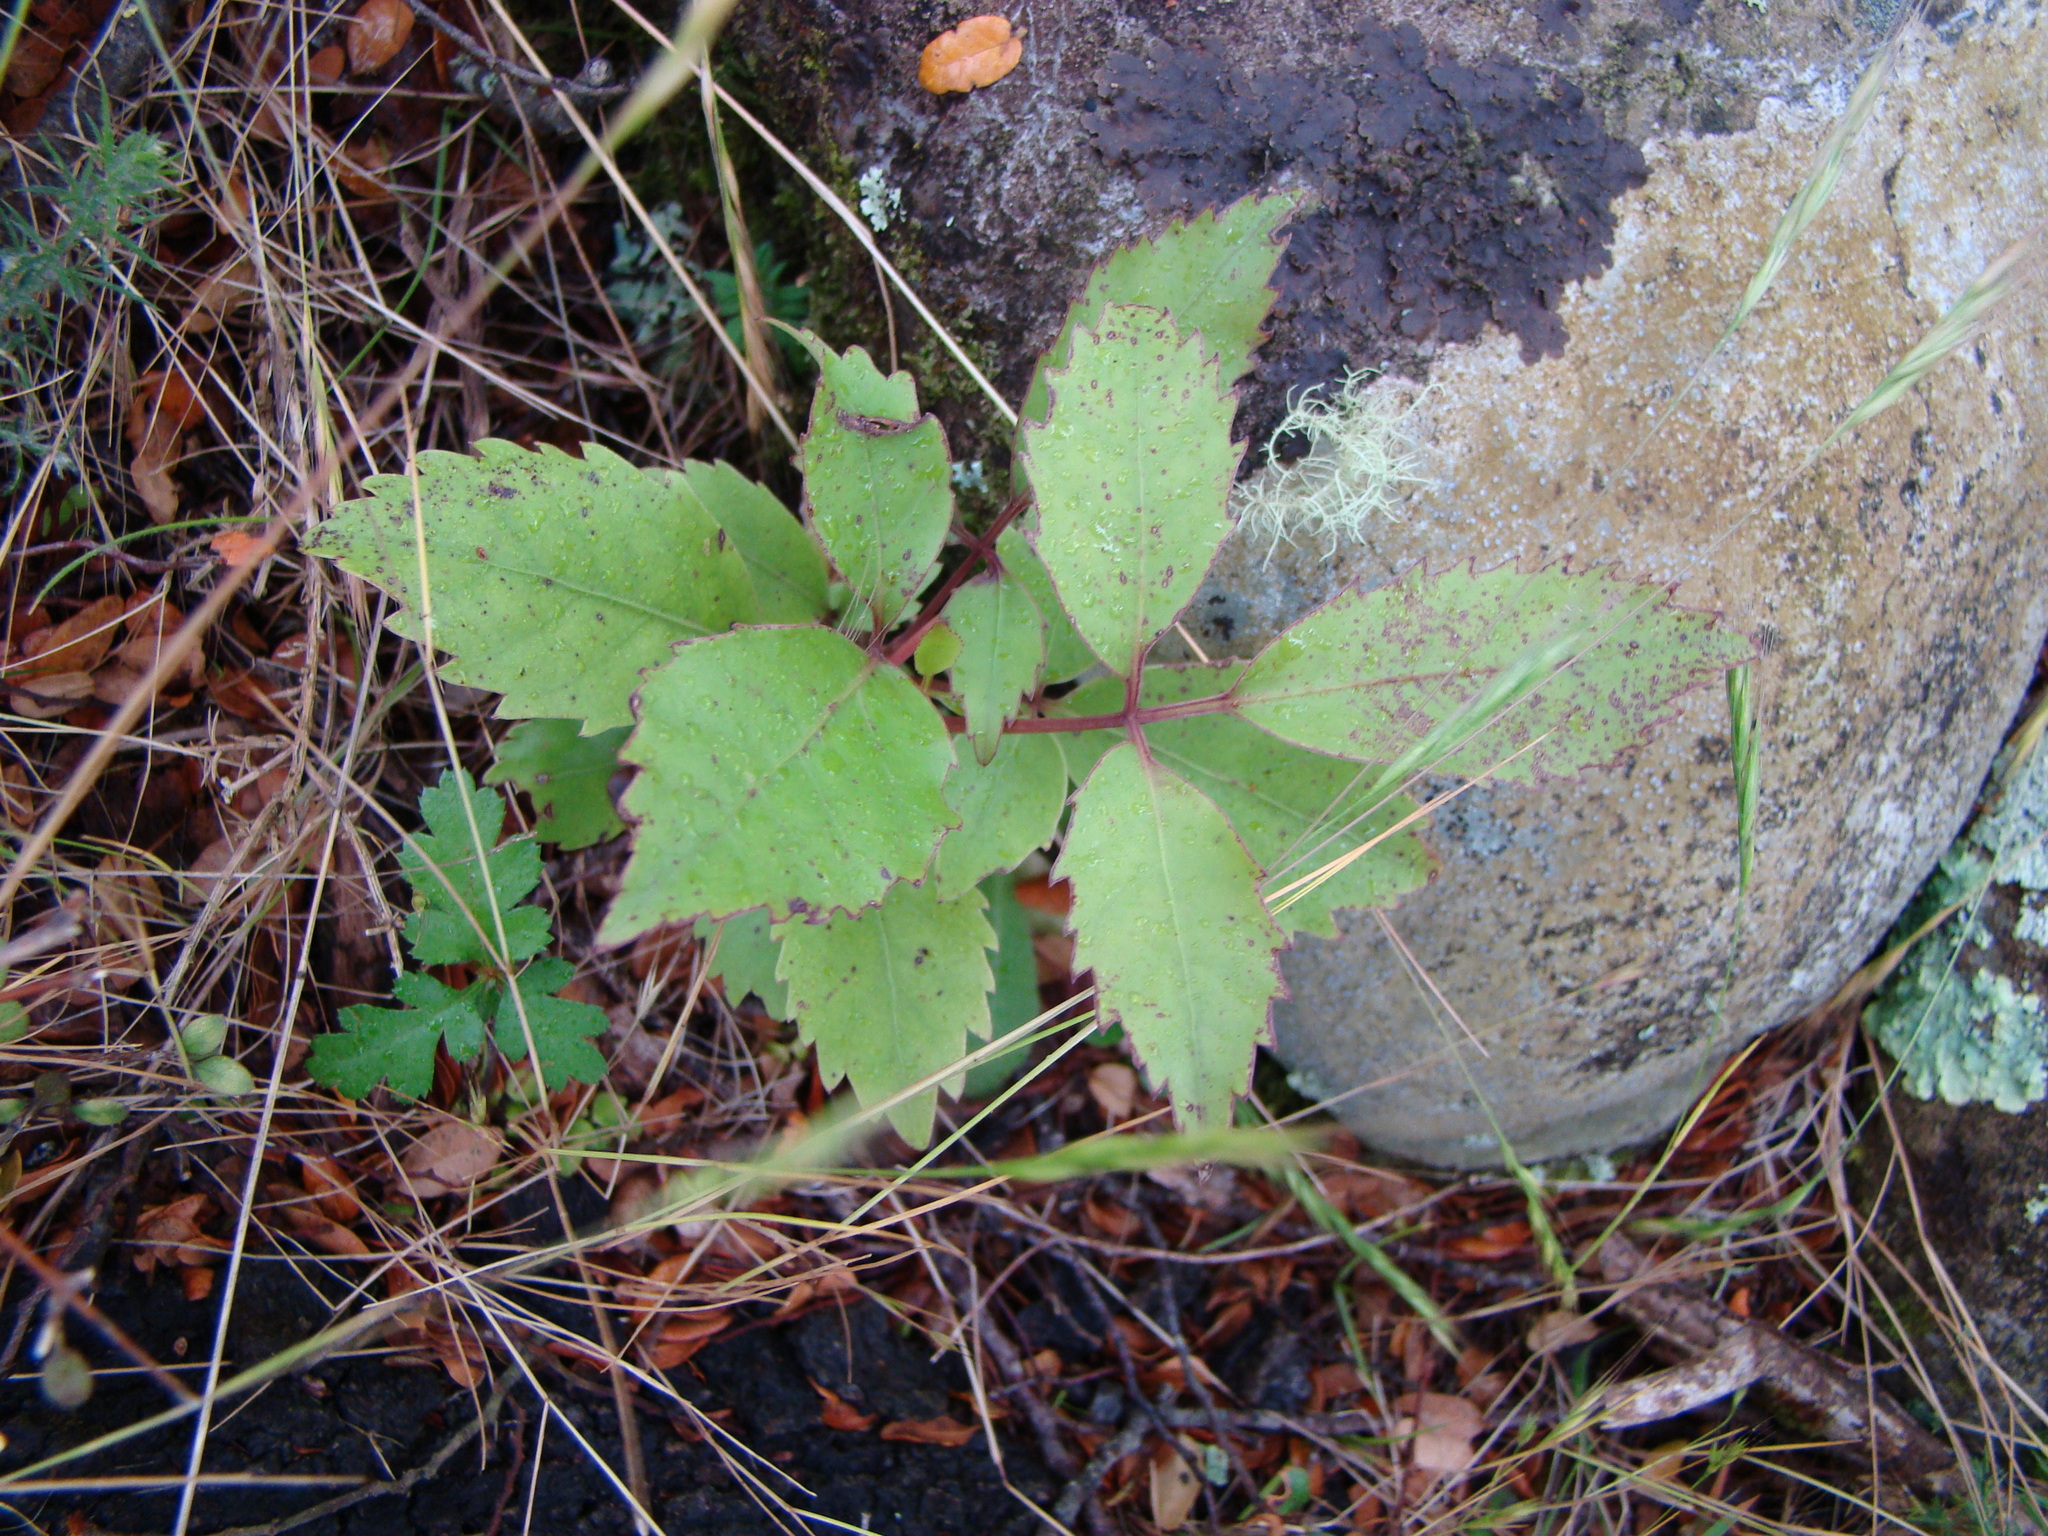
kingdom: Plantae
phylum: Tracheophyta
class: Magnoliopsida
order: Apiales
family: Araliaceae
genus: Neopanax
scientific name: Neopanax arboreus
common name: Five-fingers
